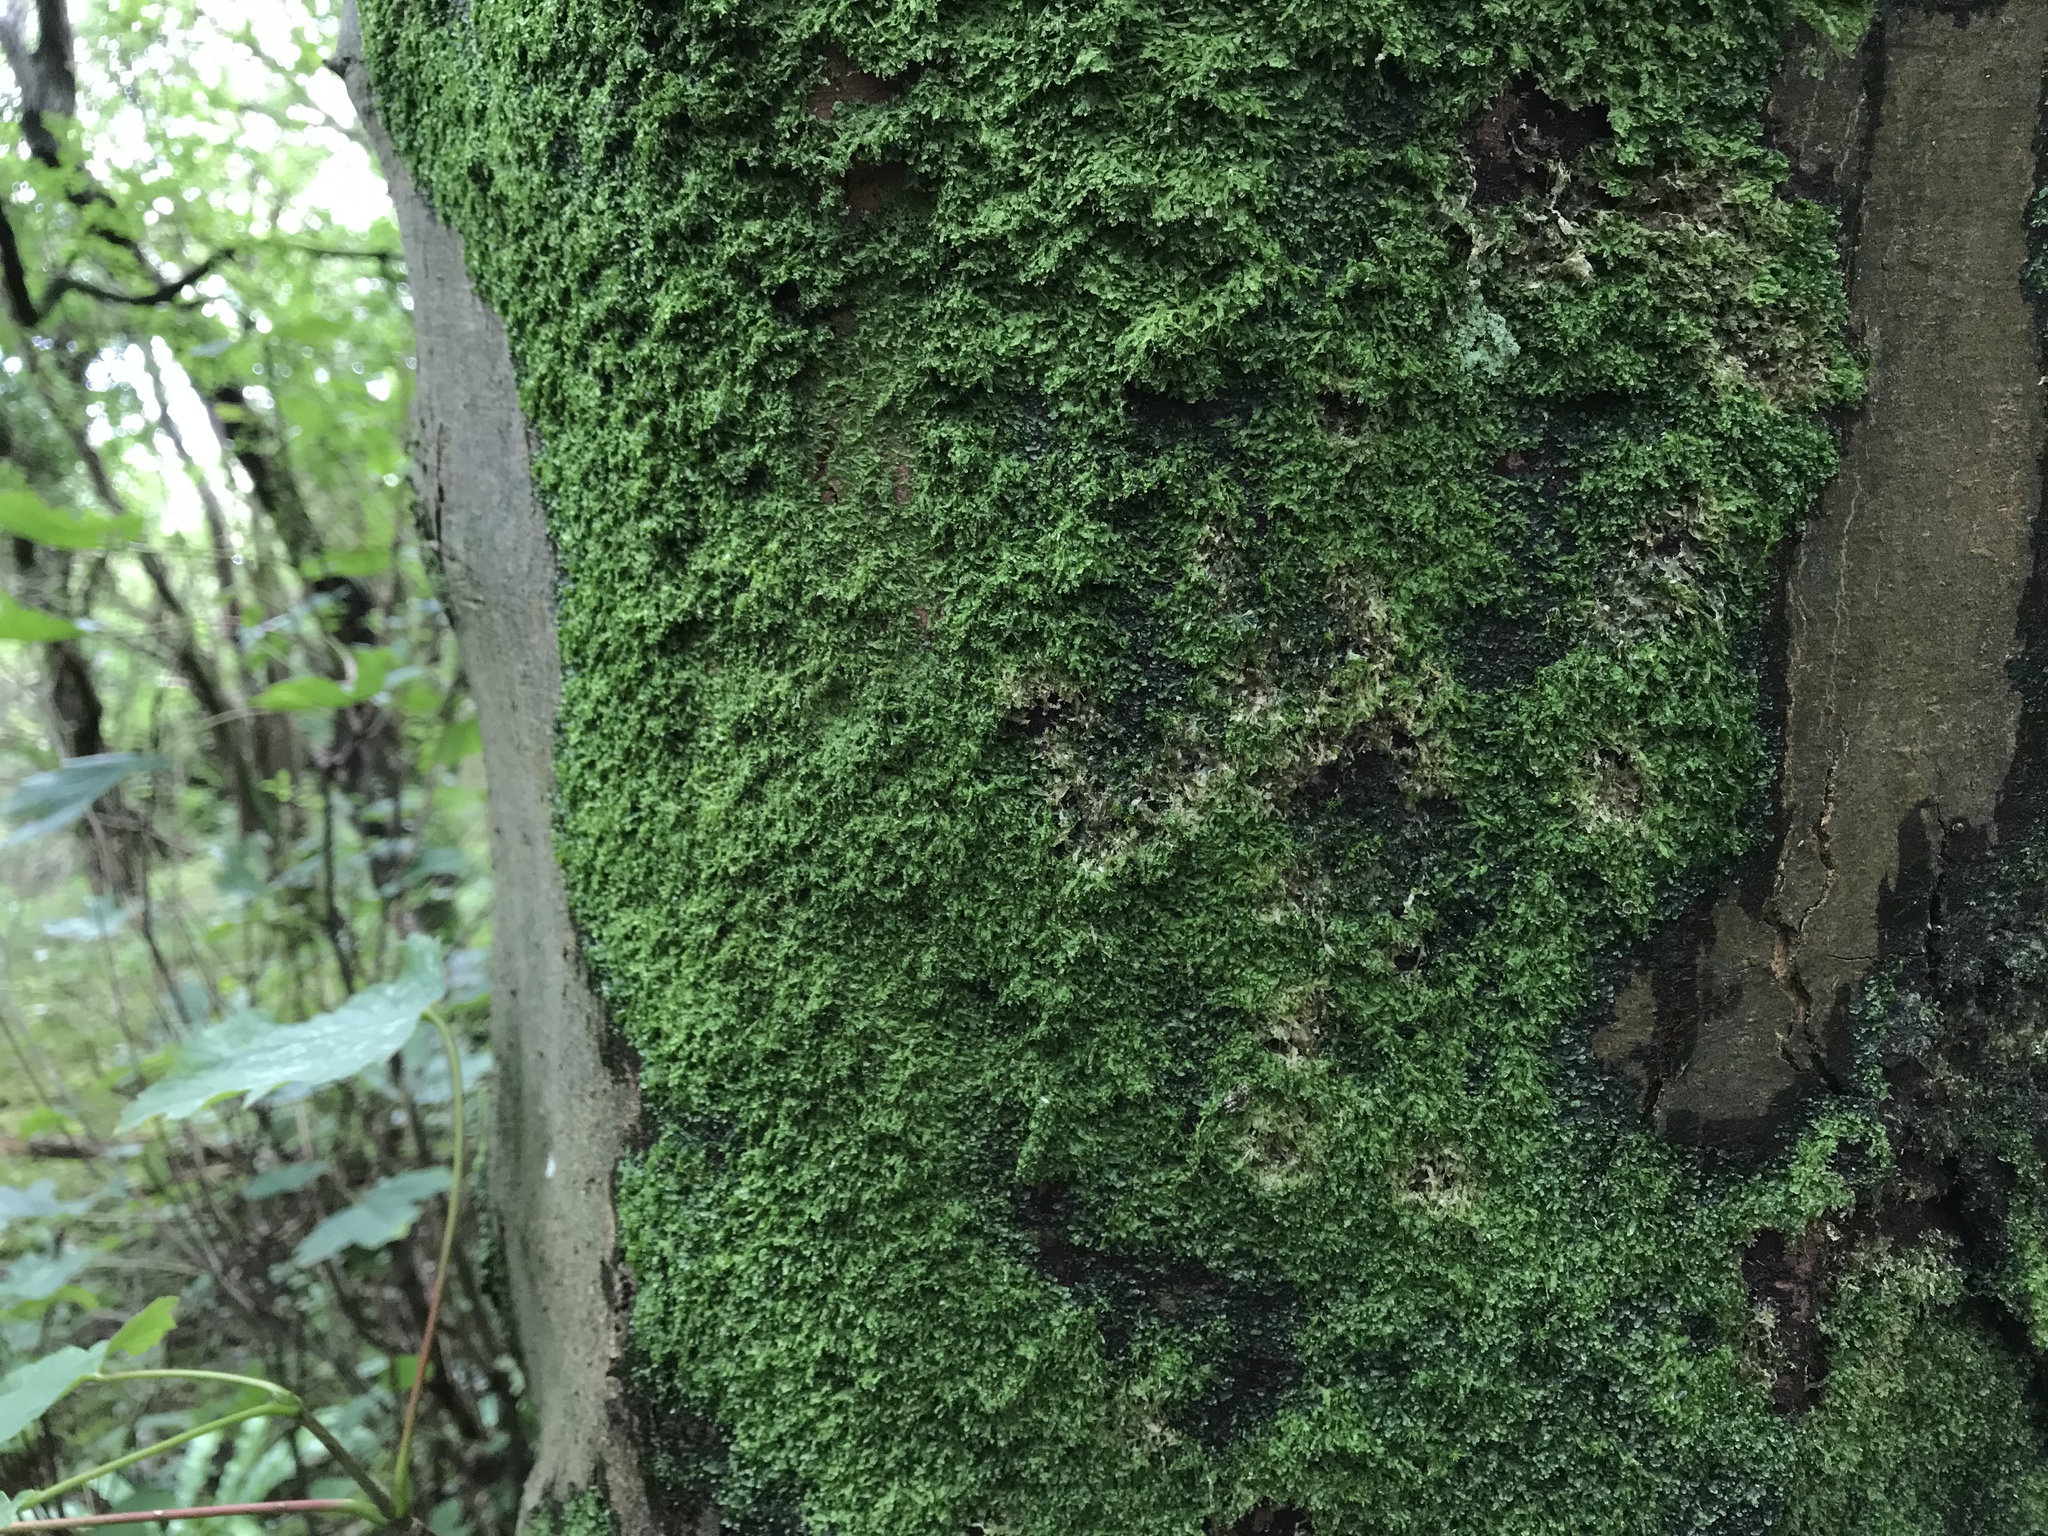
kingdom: Plantae
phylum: Marchantiophyta
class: Jungermanniopsida
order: Metzgeriales
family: Metzgeriaceae
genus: Metzgeria
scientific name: Metzgeria furcata
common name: Forked veilwort
